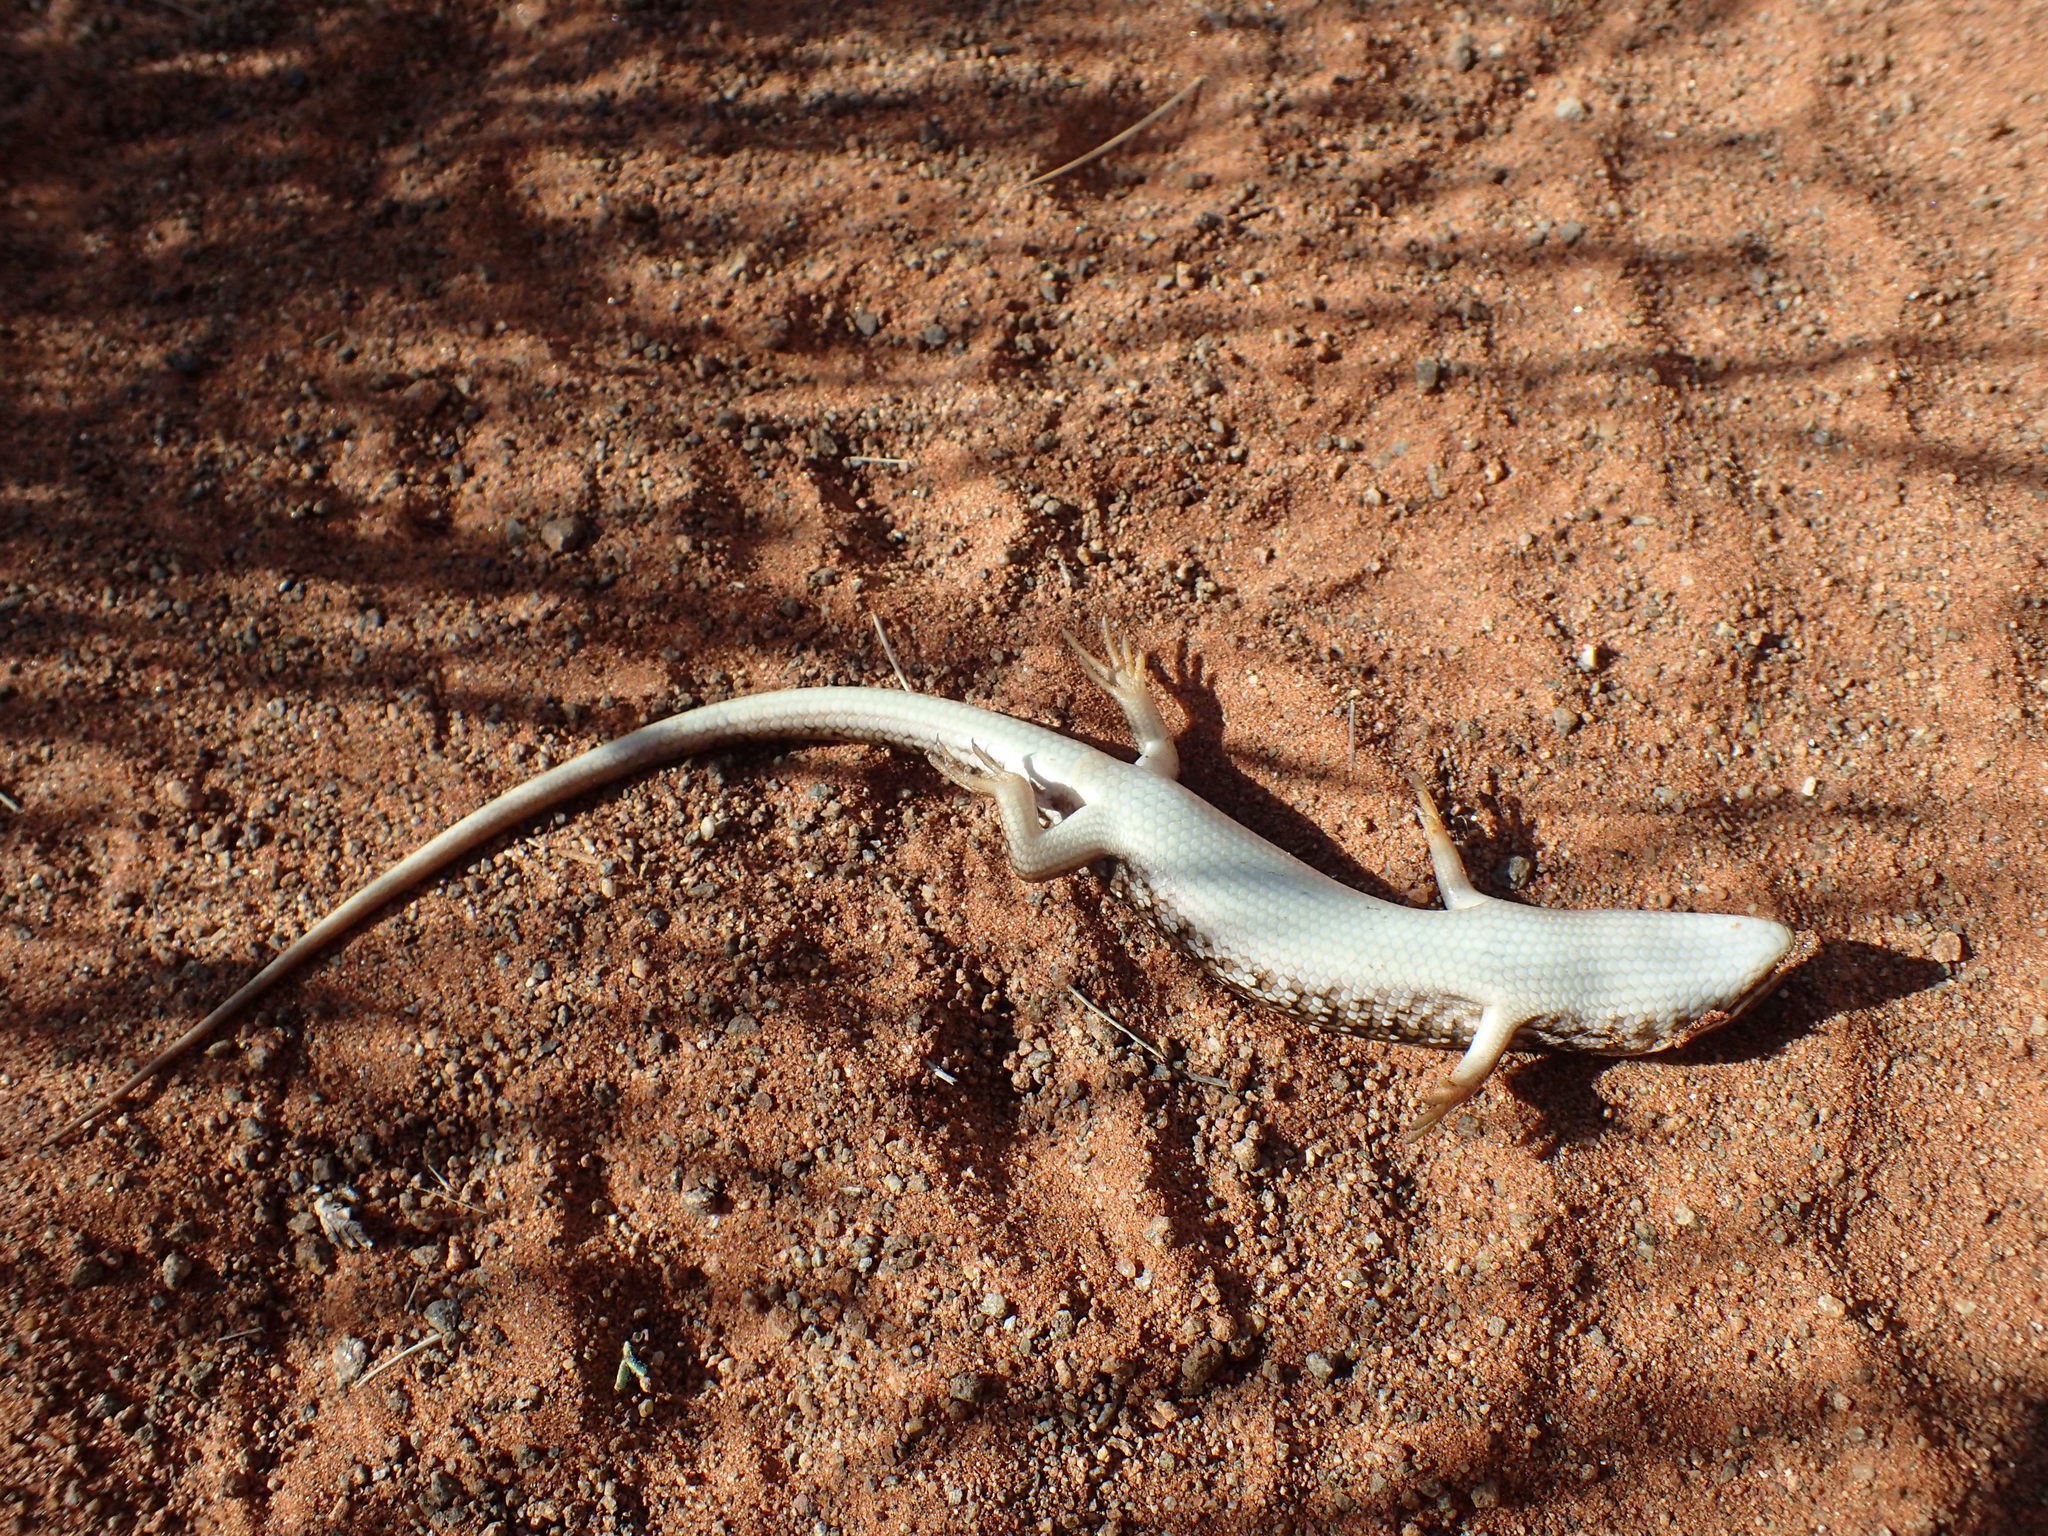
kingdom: Animalia
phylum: Chordata
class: Squamata
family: Scincidae
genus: Trachylepis
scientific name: Trachylepis capensis
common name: Cape skink
